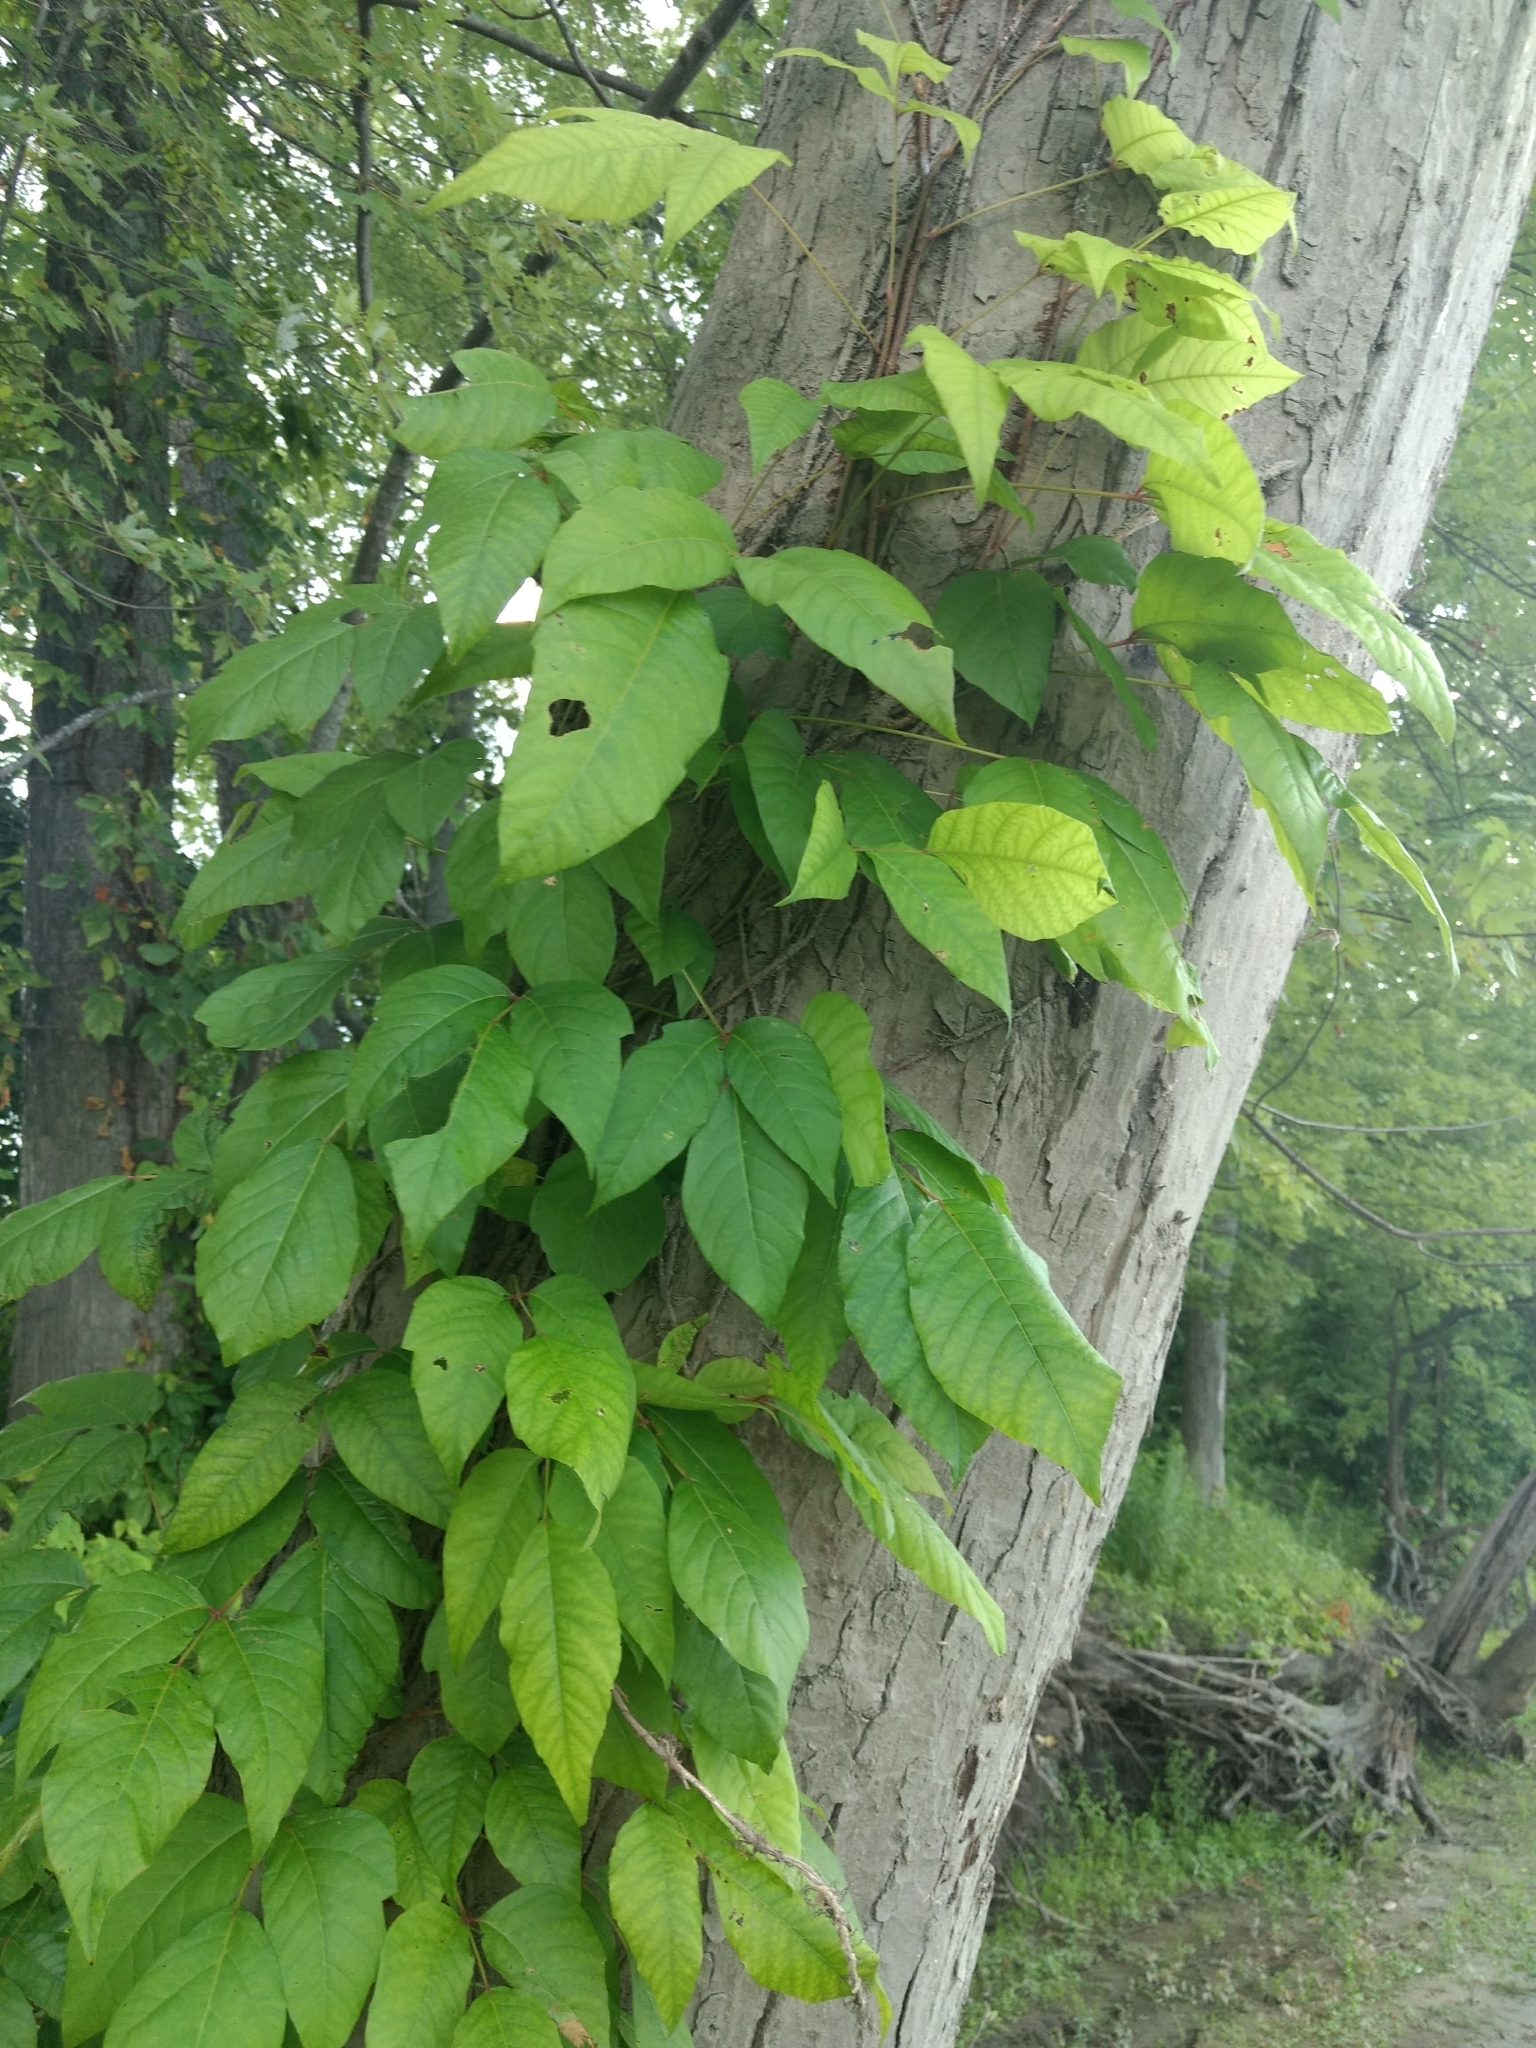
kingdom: Plantae
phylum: Tracheophyta
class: Magnoliopsida
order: Sapindales
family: Anacardiaceae
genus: Toxicodendron
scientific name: Toxicodendron radicans
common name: Poison ivy
